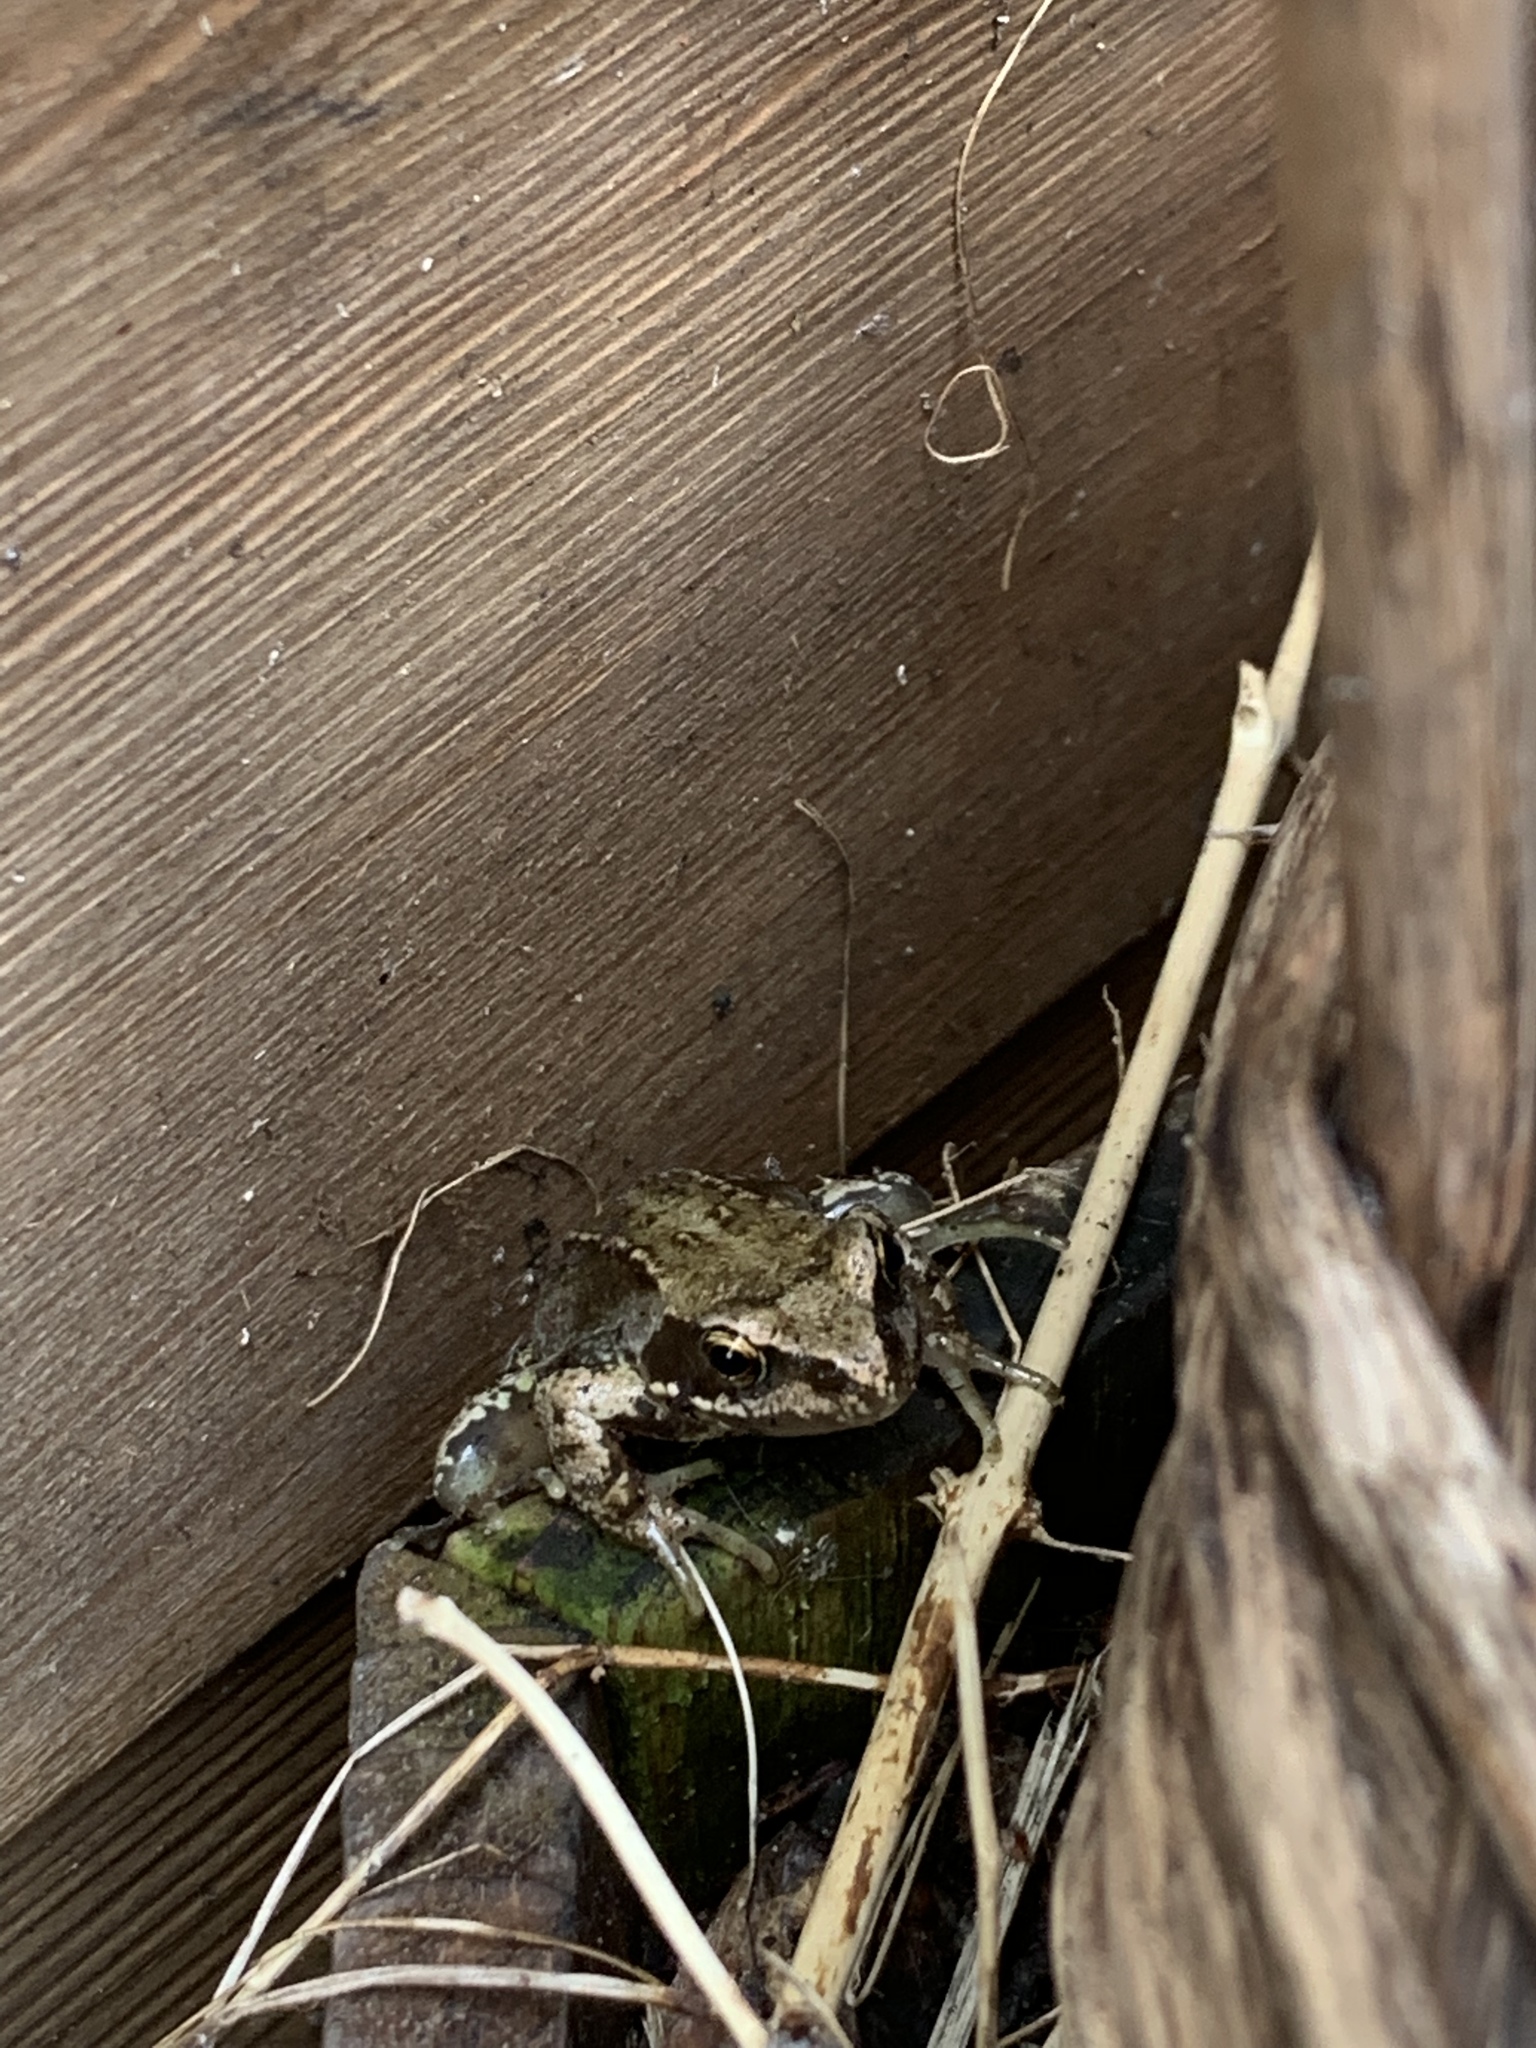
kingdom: Animalia
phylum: Chordata
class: Amphibia
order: Anura
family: Ranidae
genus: Rana
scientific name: Rana temporaria
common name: Common frog
